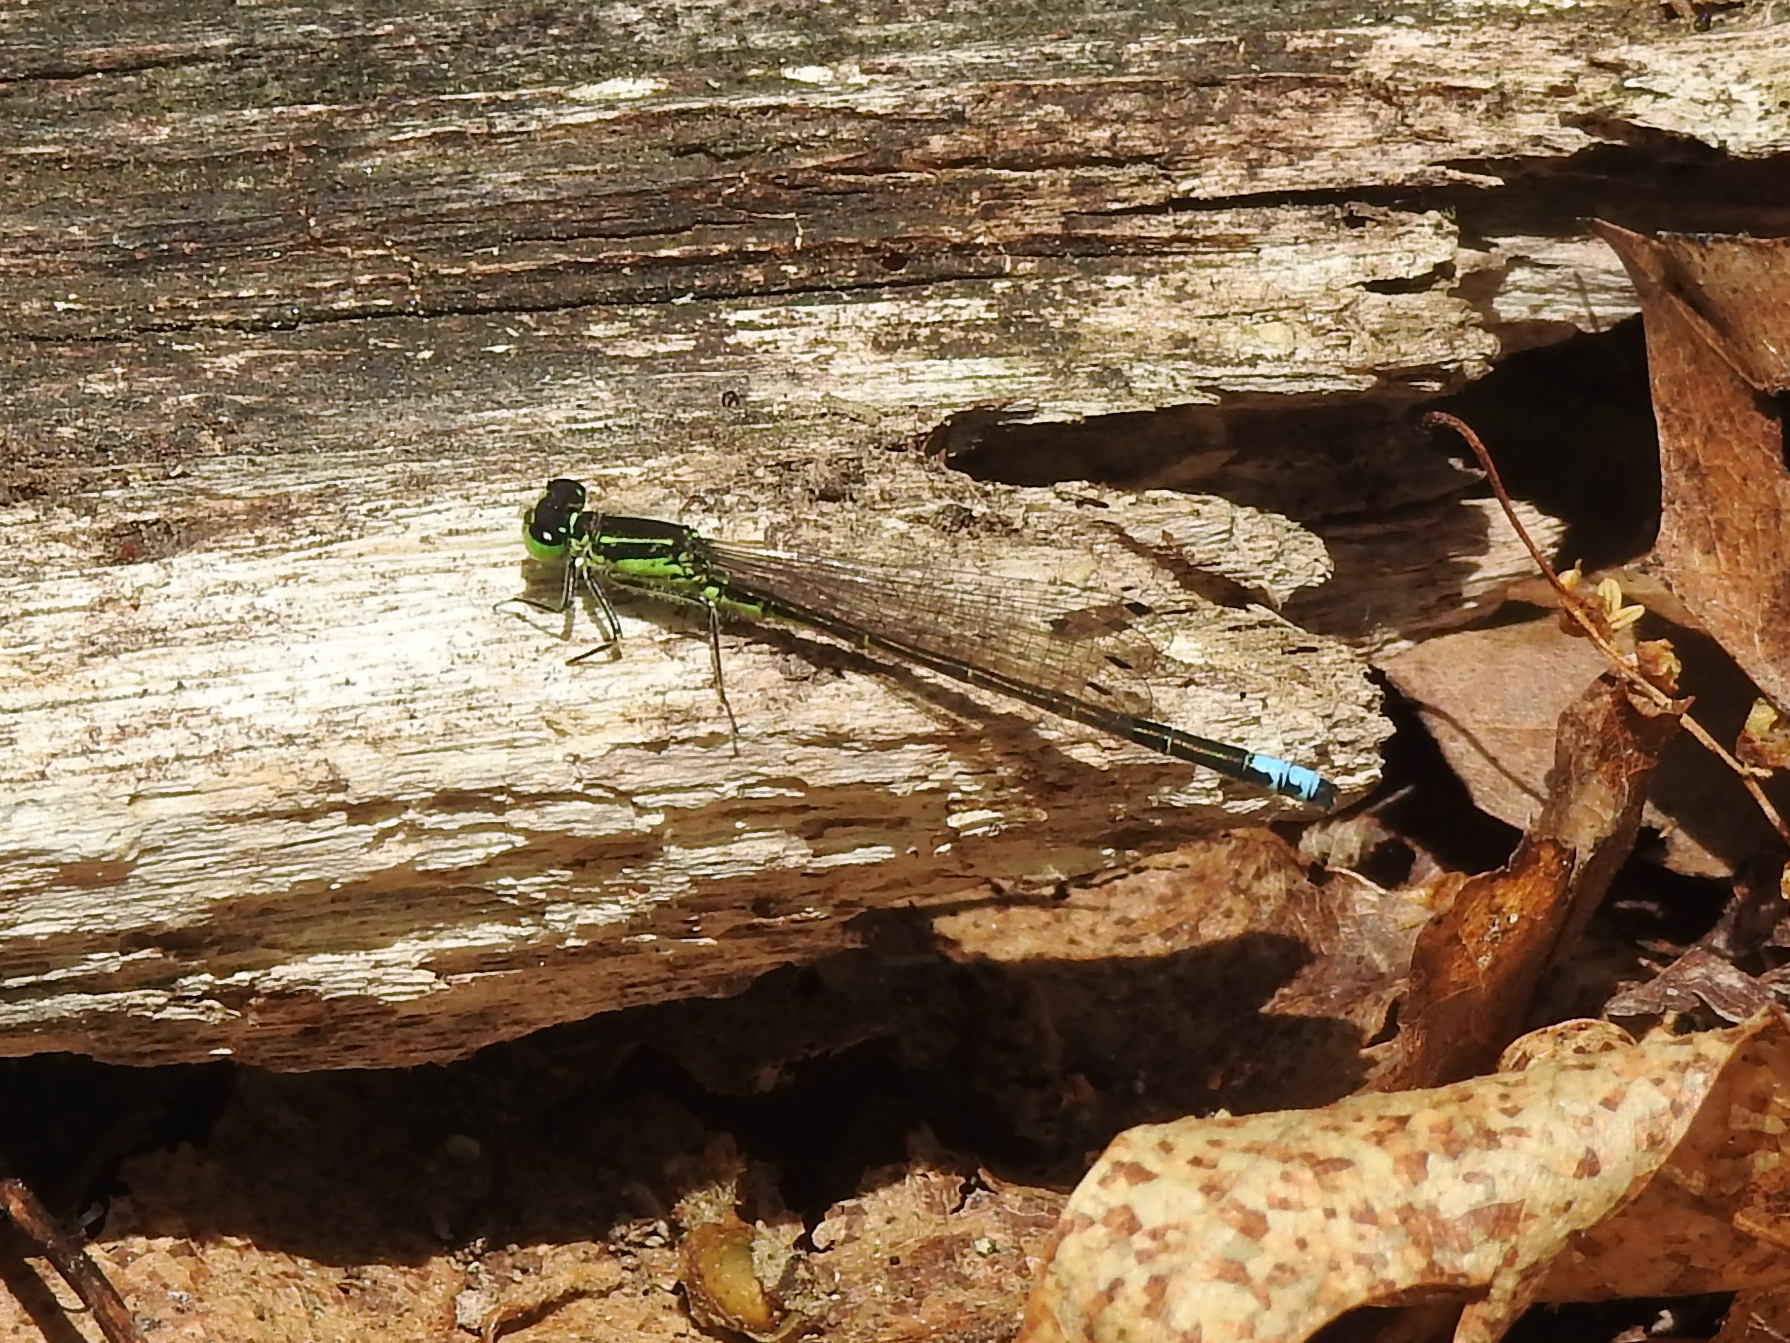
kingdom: Animalia
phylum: Arthropoda
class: Insecta
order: Odonata
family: Coenagrionidae
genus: Ischnura
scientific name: Ischnura verticalis
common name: Eastern forktail
